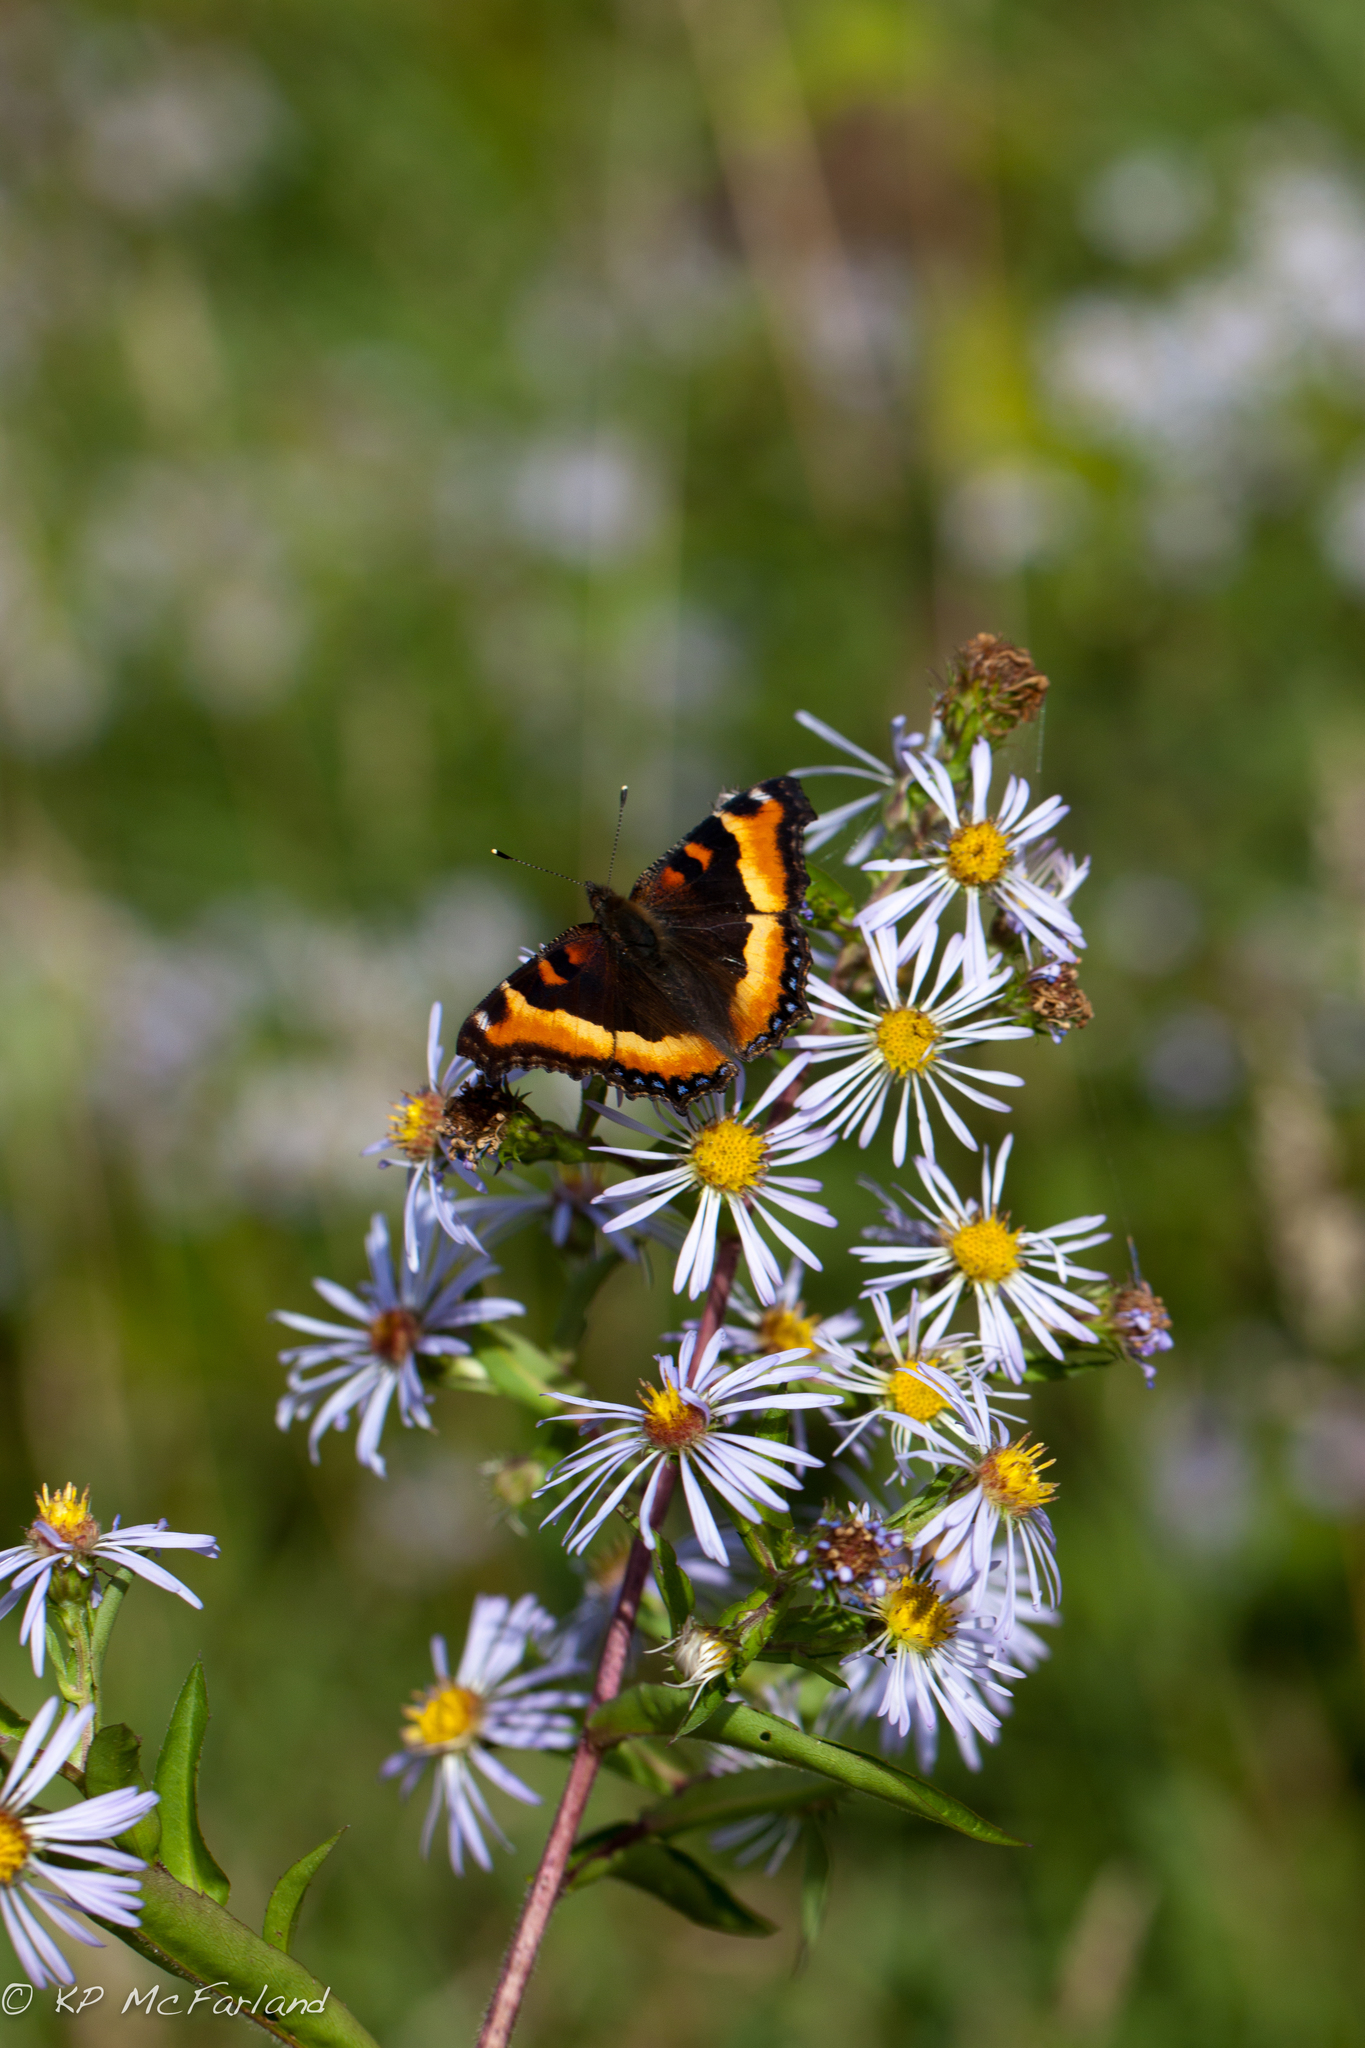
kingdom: Animalia
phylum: Arthropoda
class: Insecta
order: Lepidoptera
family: Nymphalidae
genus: Aglais
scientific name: Aglais milberti
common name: Milbert's tortoiseshell
